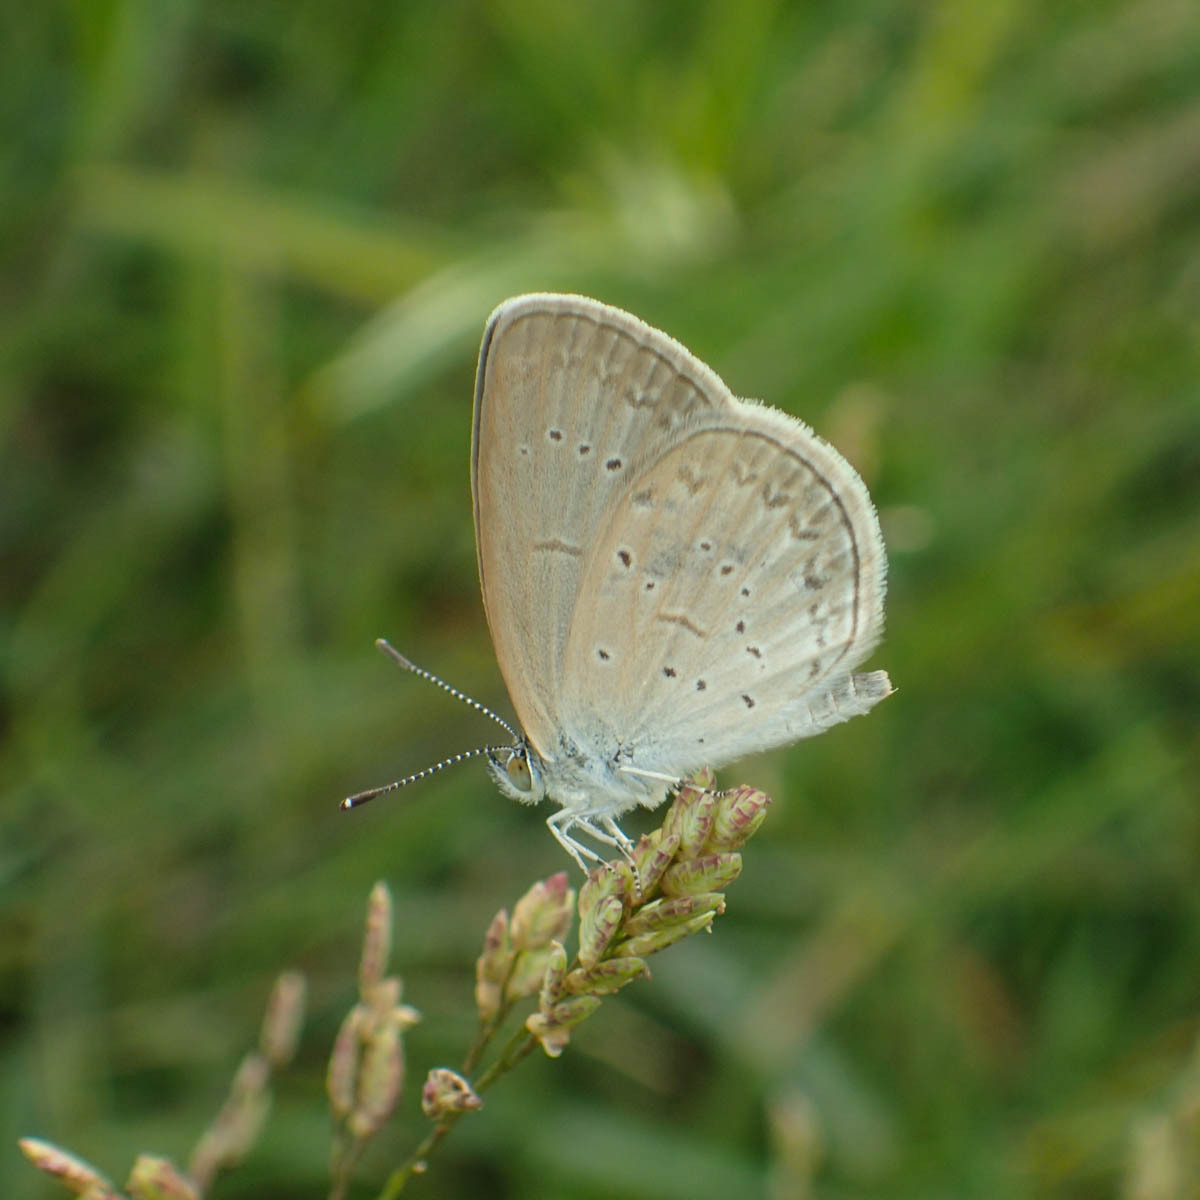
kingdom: Animalia
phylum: Arthropoda
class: Insecta
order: Lepidoptera
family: Lycaenidae
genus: Zizina
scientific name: Zizina otis
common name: Lesser grass blue
